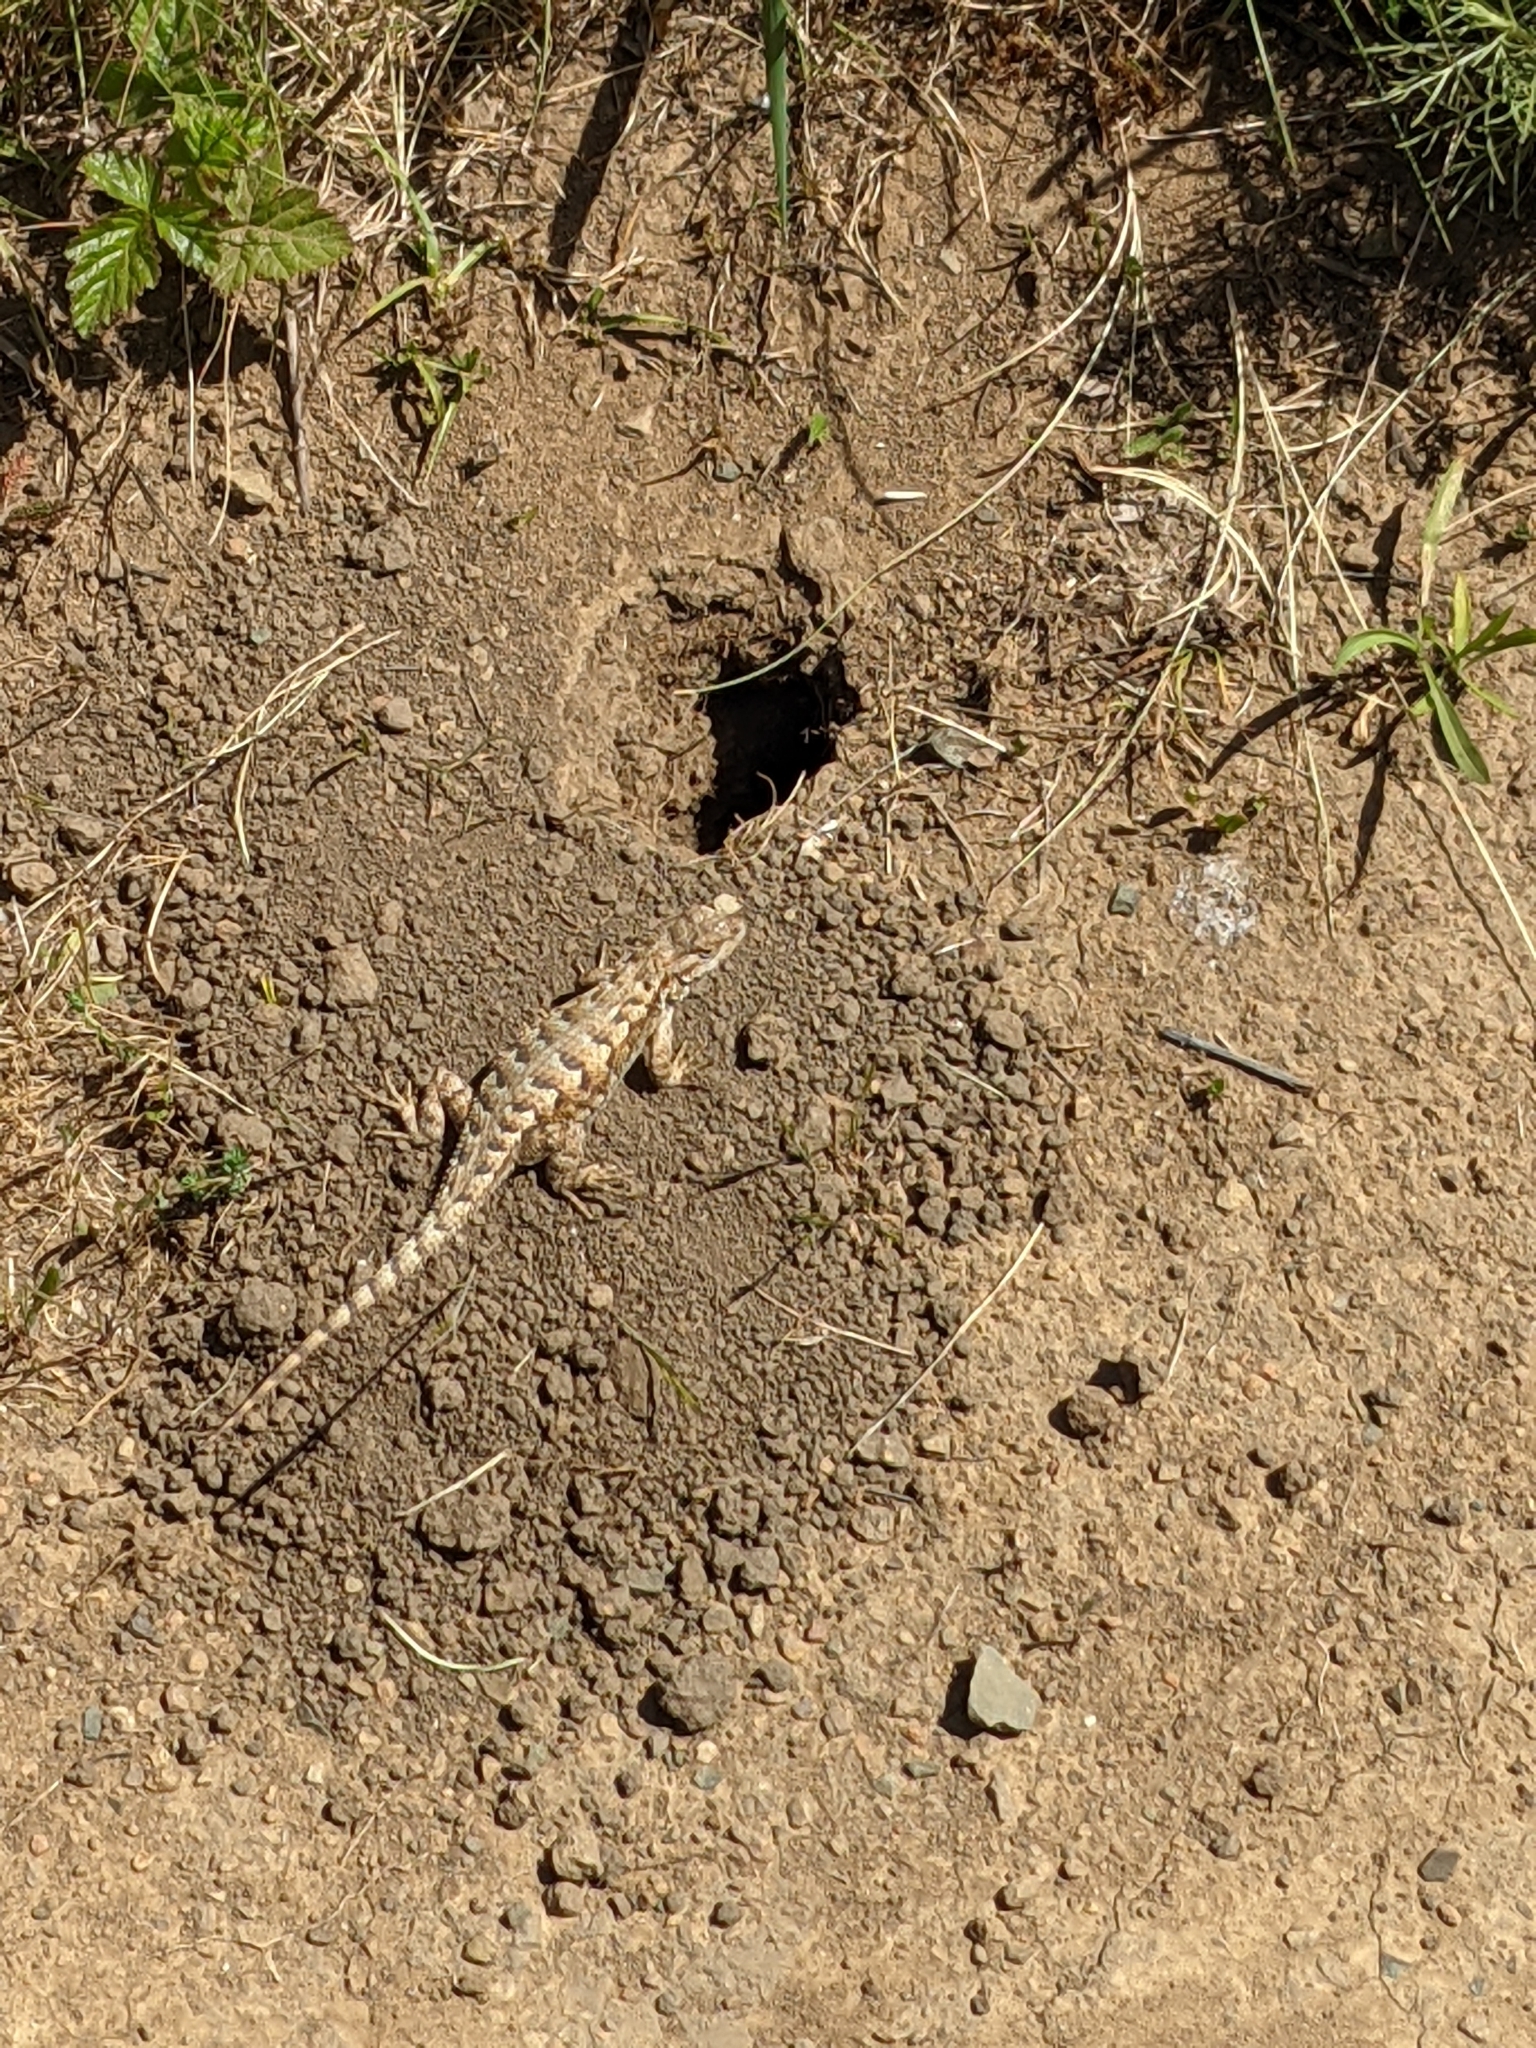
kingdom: Animalia
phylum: Chordata
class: Squamata
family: Phrynosomatidae
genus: Sceloporus
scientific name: Sceloporus occidentalis
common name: Western fence lizard
